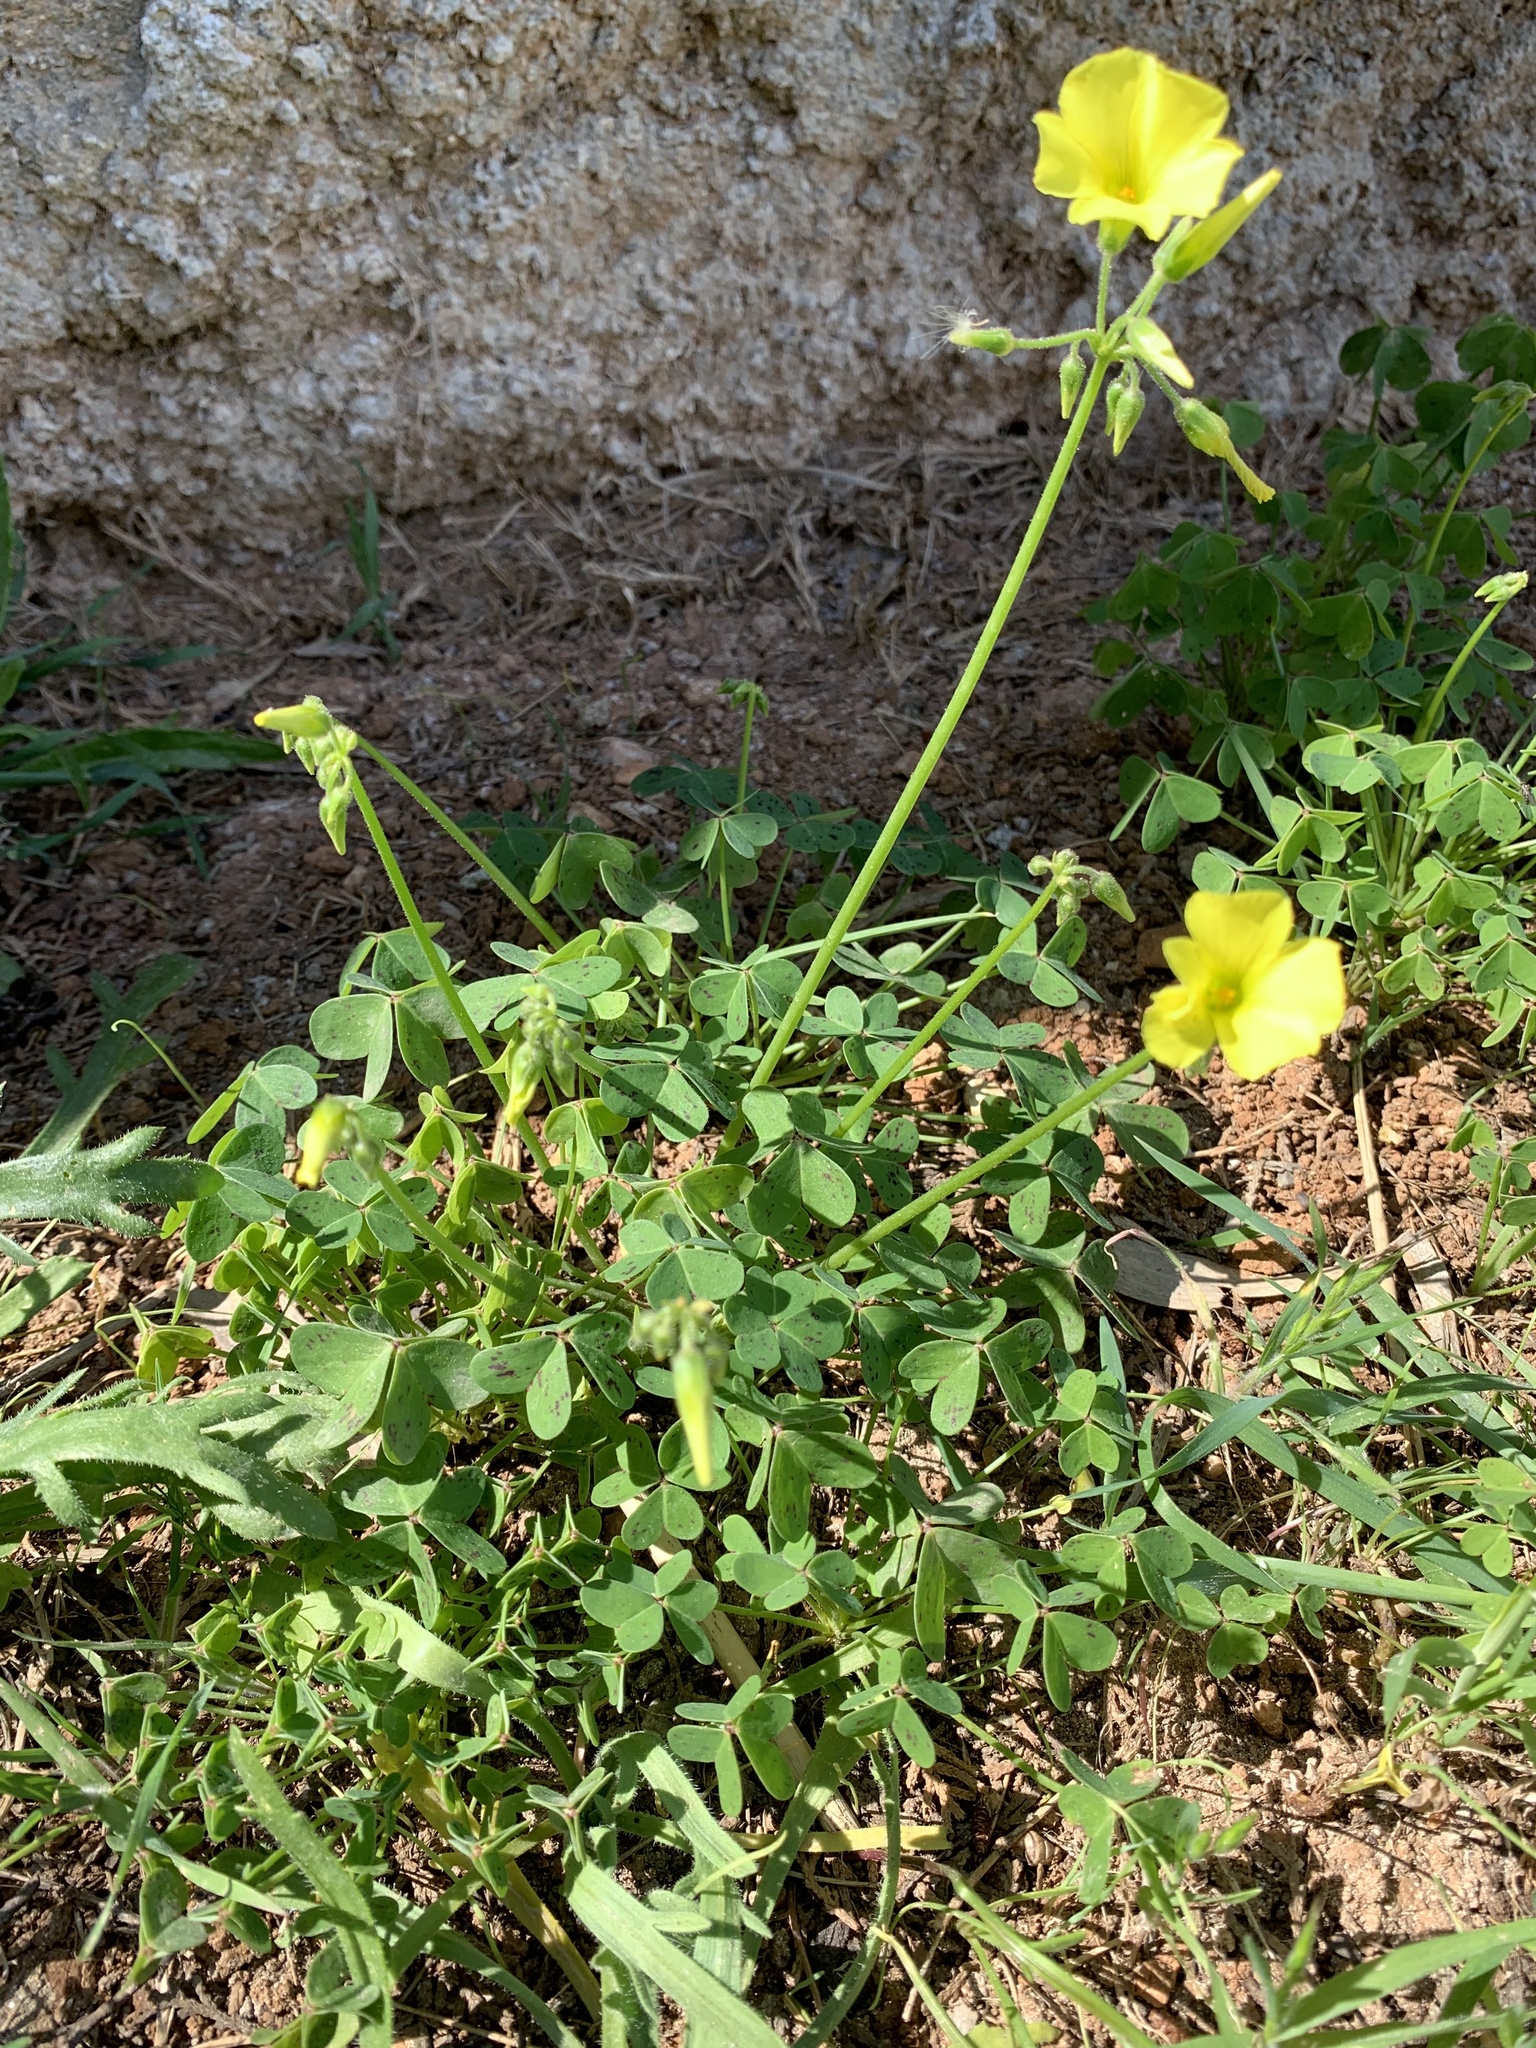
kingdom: Plantae
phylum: Tracheophyta
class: Magnoliopsida
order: Oxalidales
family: Oxalidaceae
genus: Oxalis
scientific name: Oxalis pes-caprae
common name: Bermuda-buttercup
